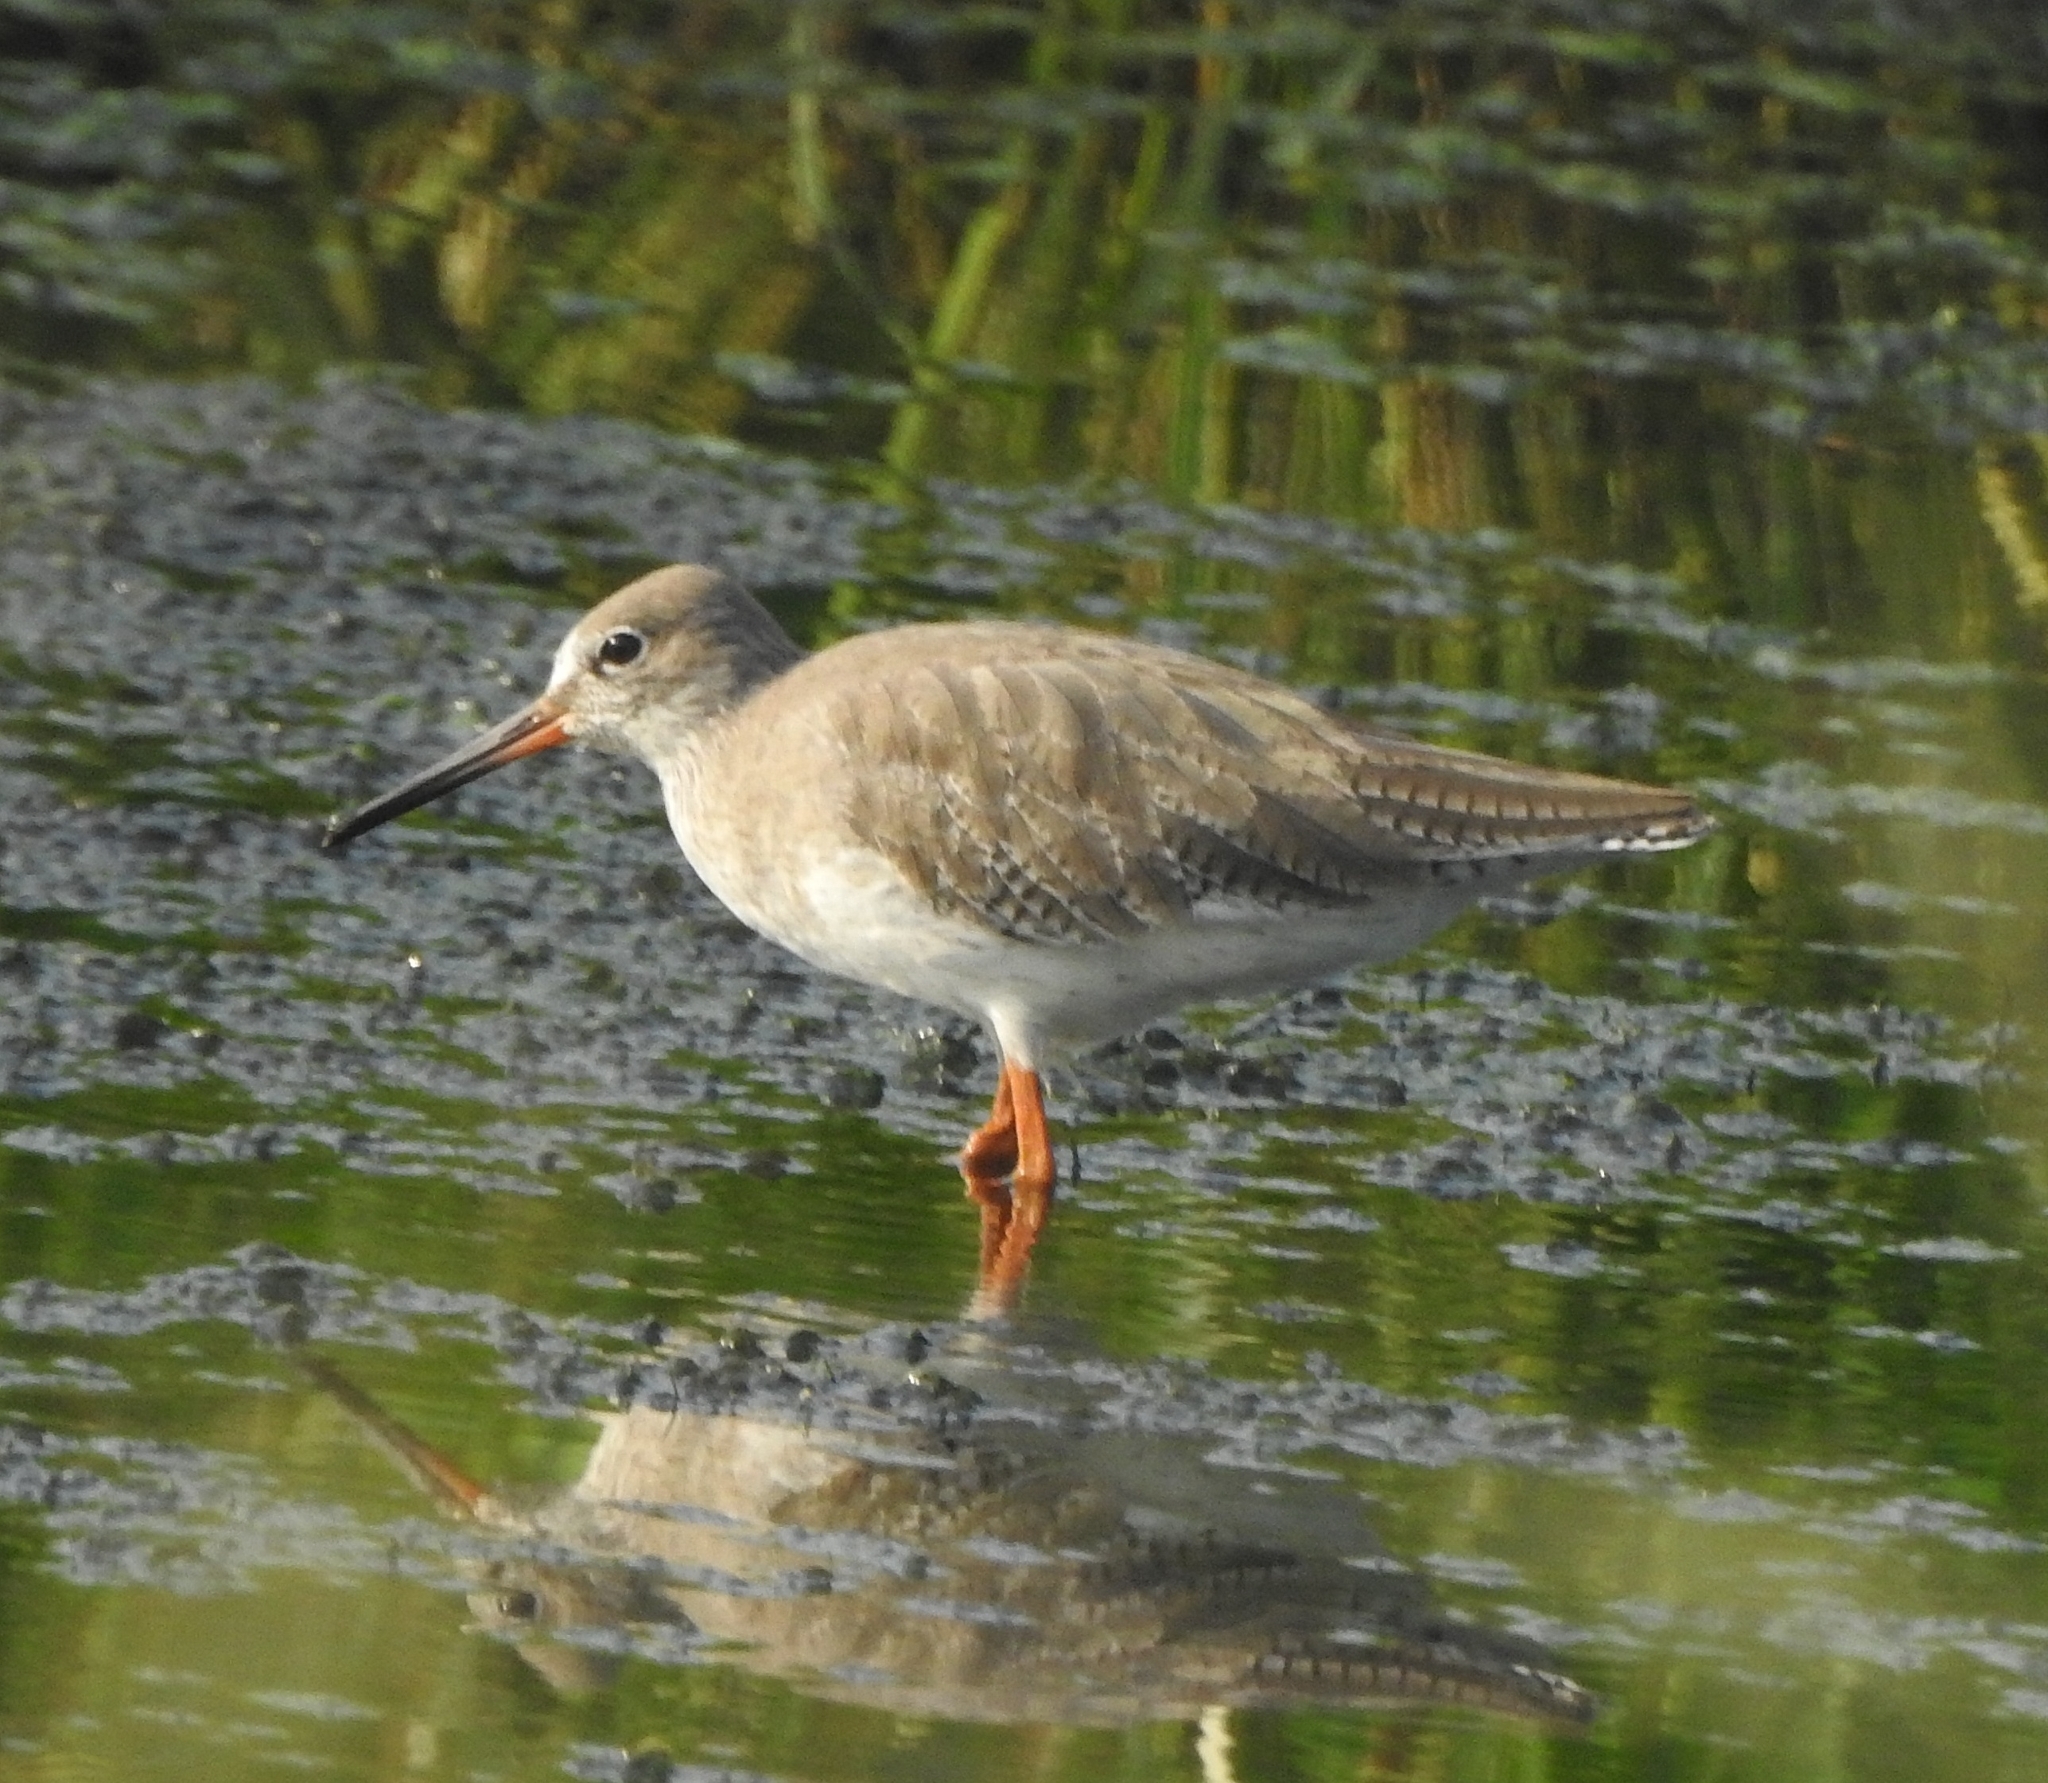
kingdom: Animalia
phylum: Chordata
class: Aves
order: Charadriiformes
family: Scolopacidae
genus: Tringa
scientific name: Tringa totanus
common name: Common redshank
